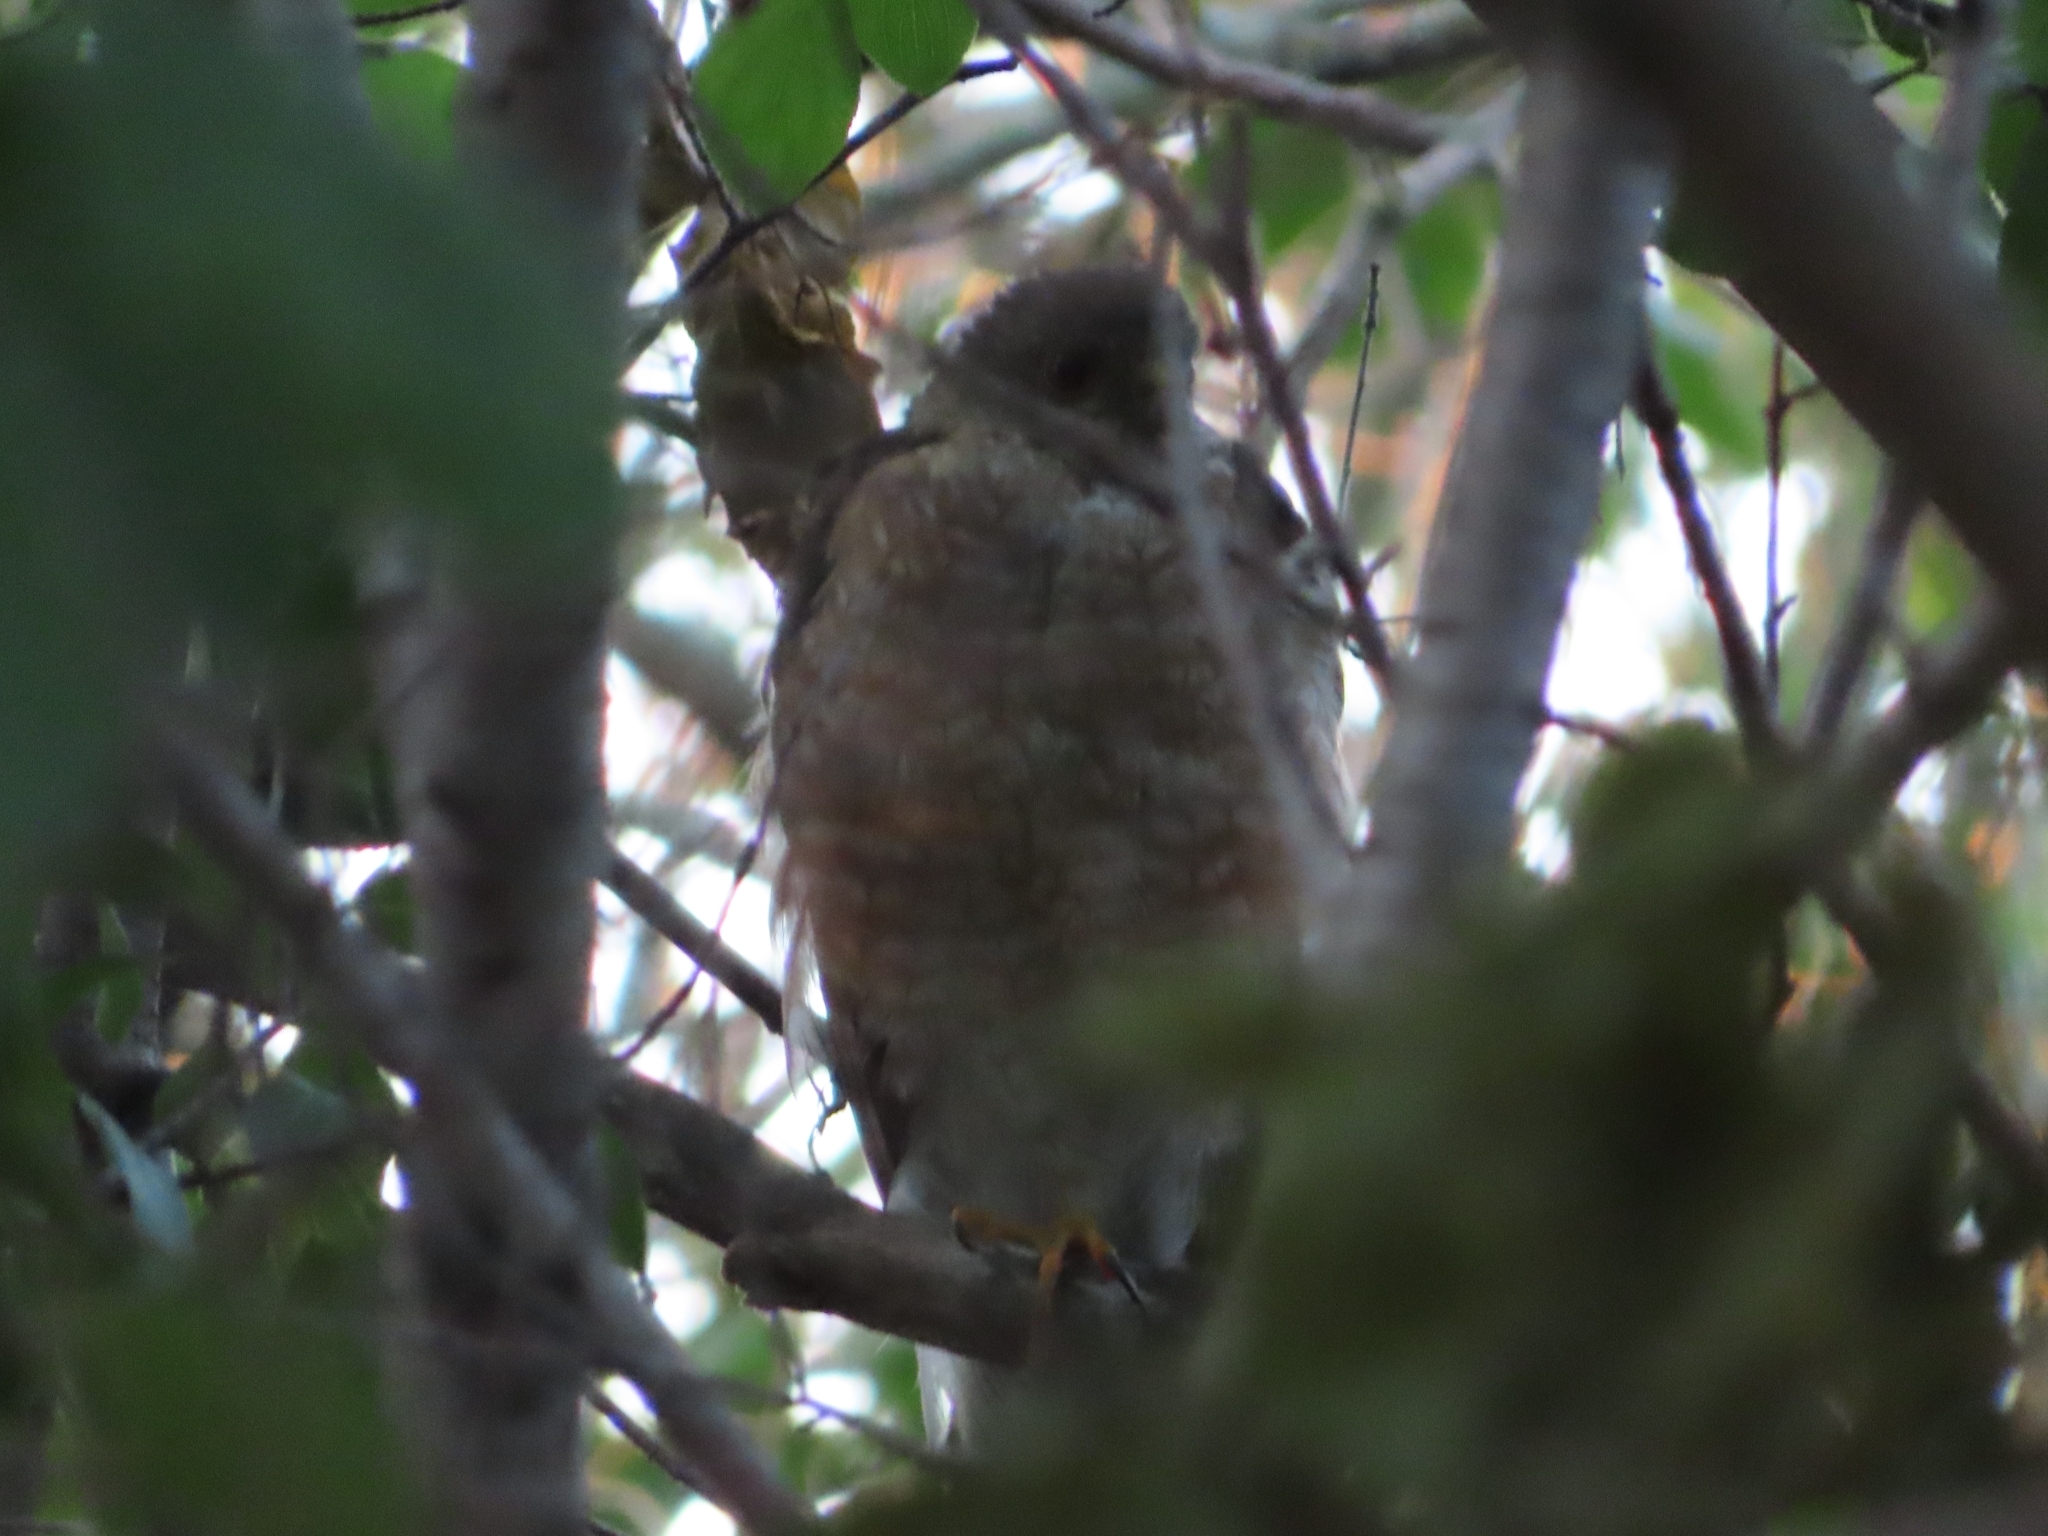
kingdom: Animalia
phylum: Chordata
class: Aves
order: Accipitriformes
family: Accipitridae
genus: Accipiter
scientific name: Accipiter cooperii
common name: Cooper's hawk
